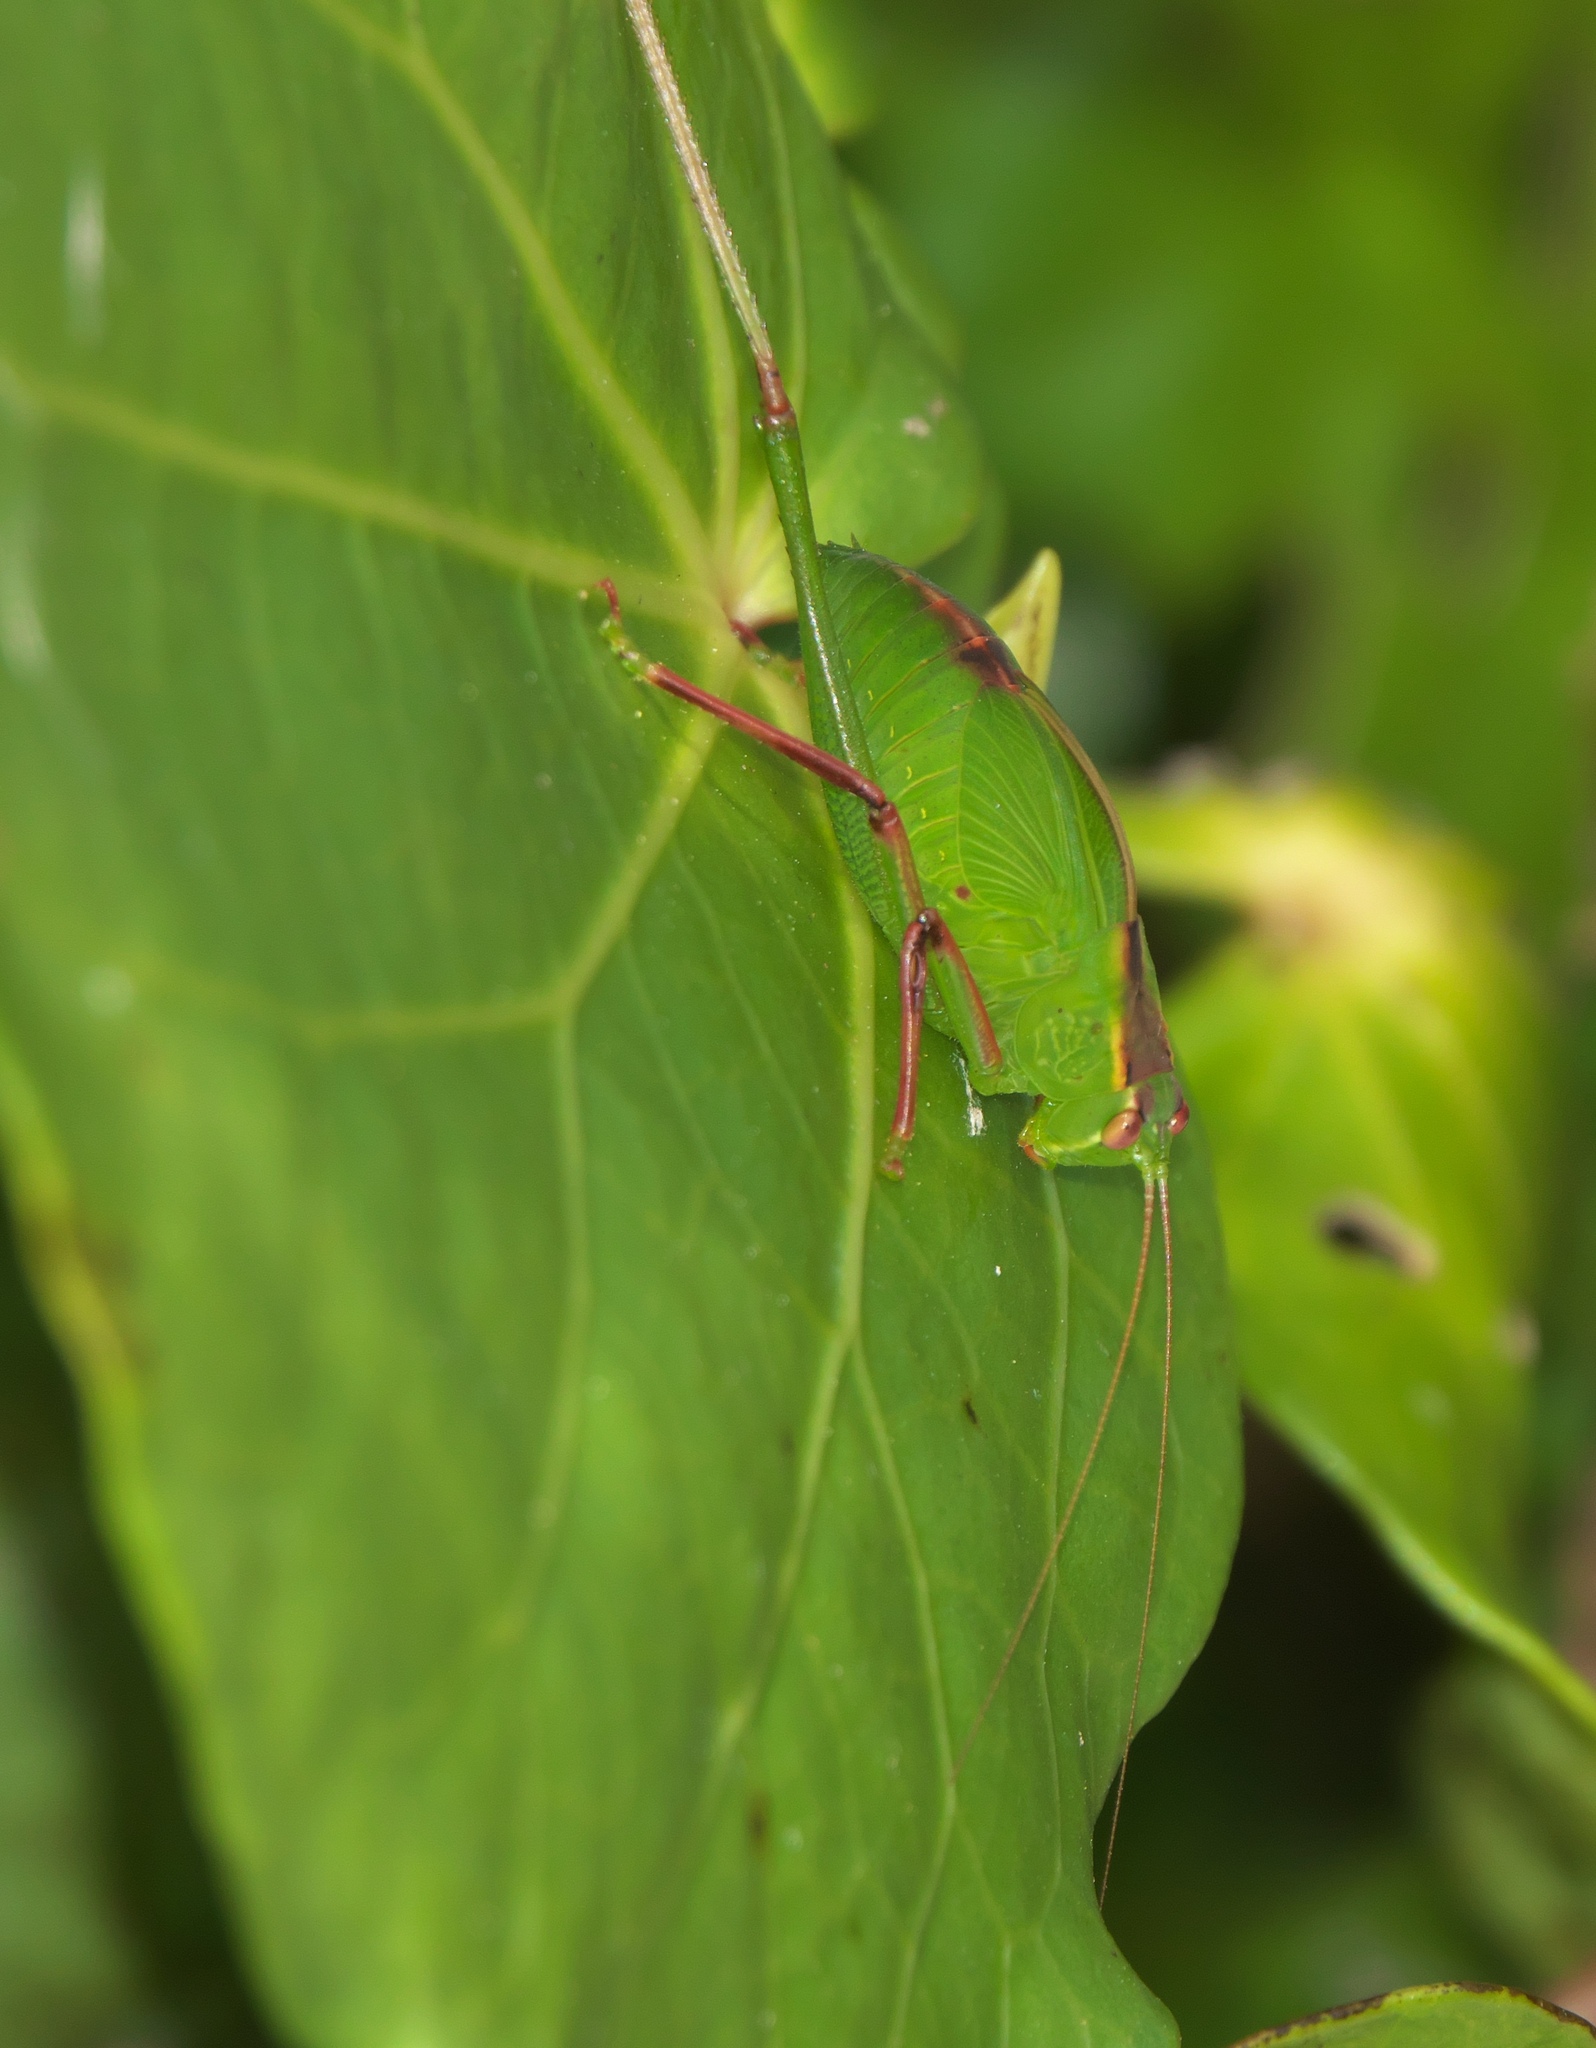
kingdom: Animalia
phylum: Arthropoda
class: Insecta
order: Orthoptera
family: Tettigoniidae
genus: Caedicia
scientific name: Caedicia simplex
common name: Common garden katydid
